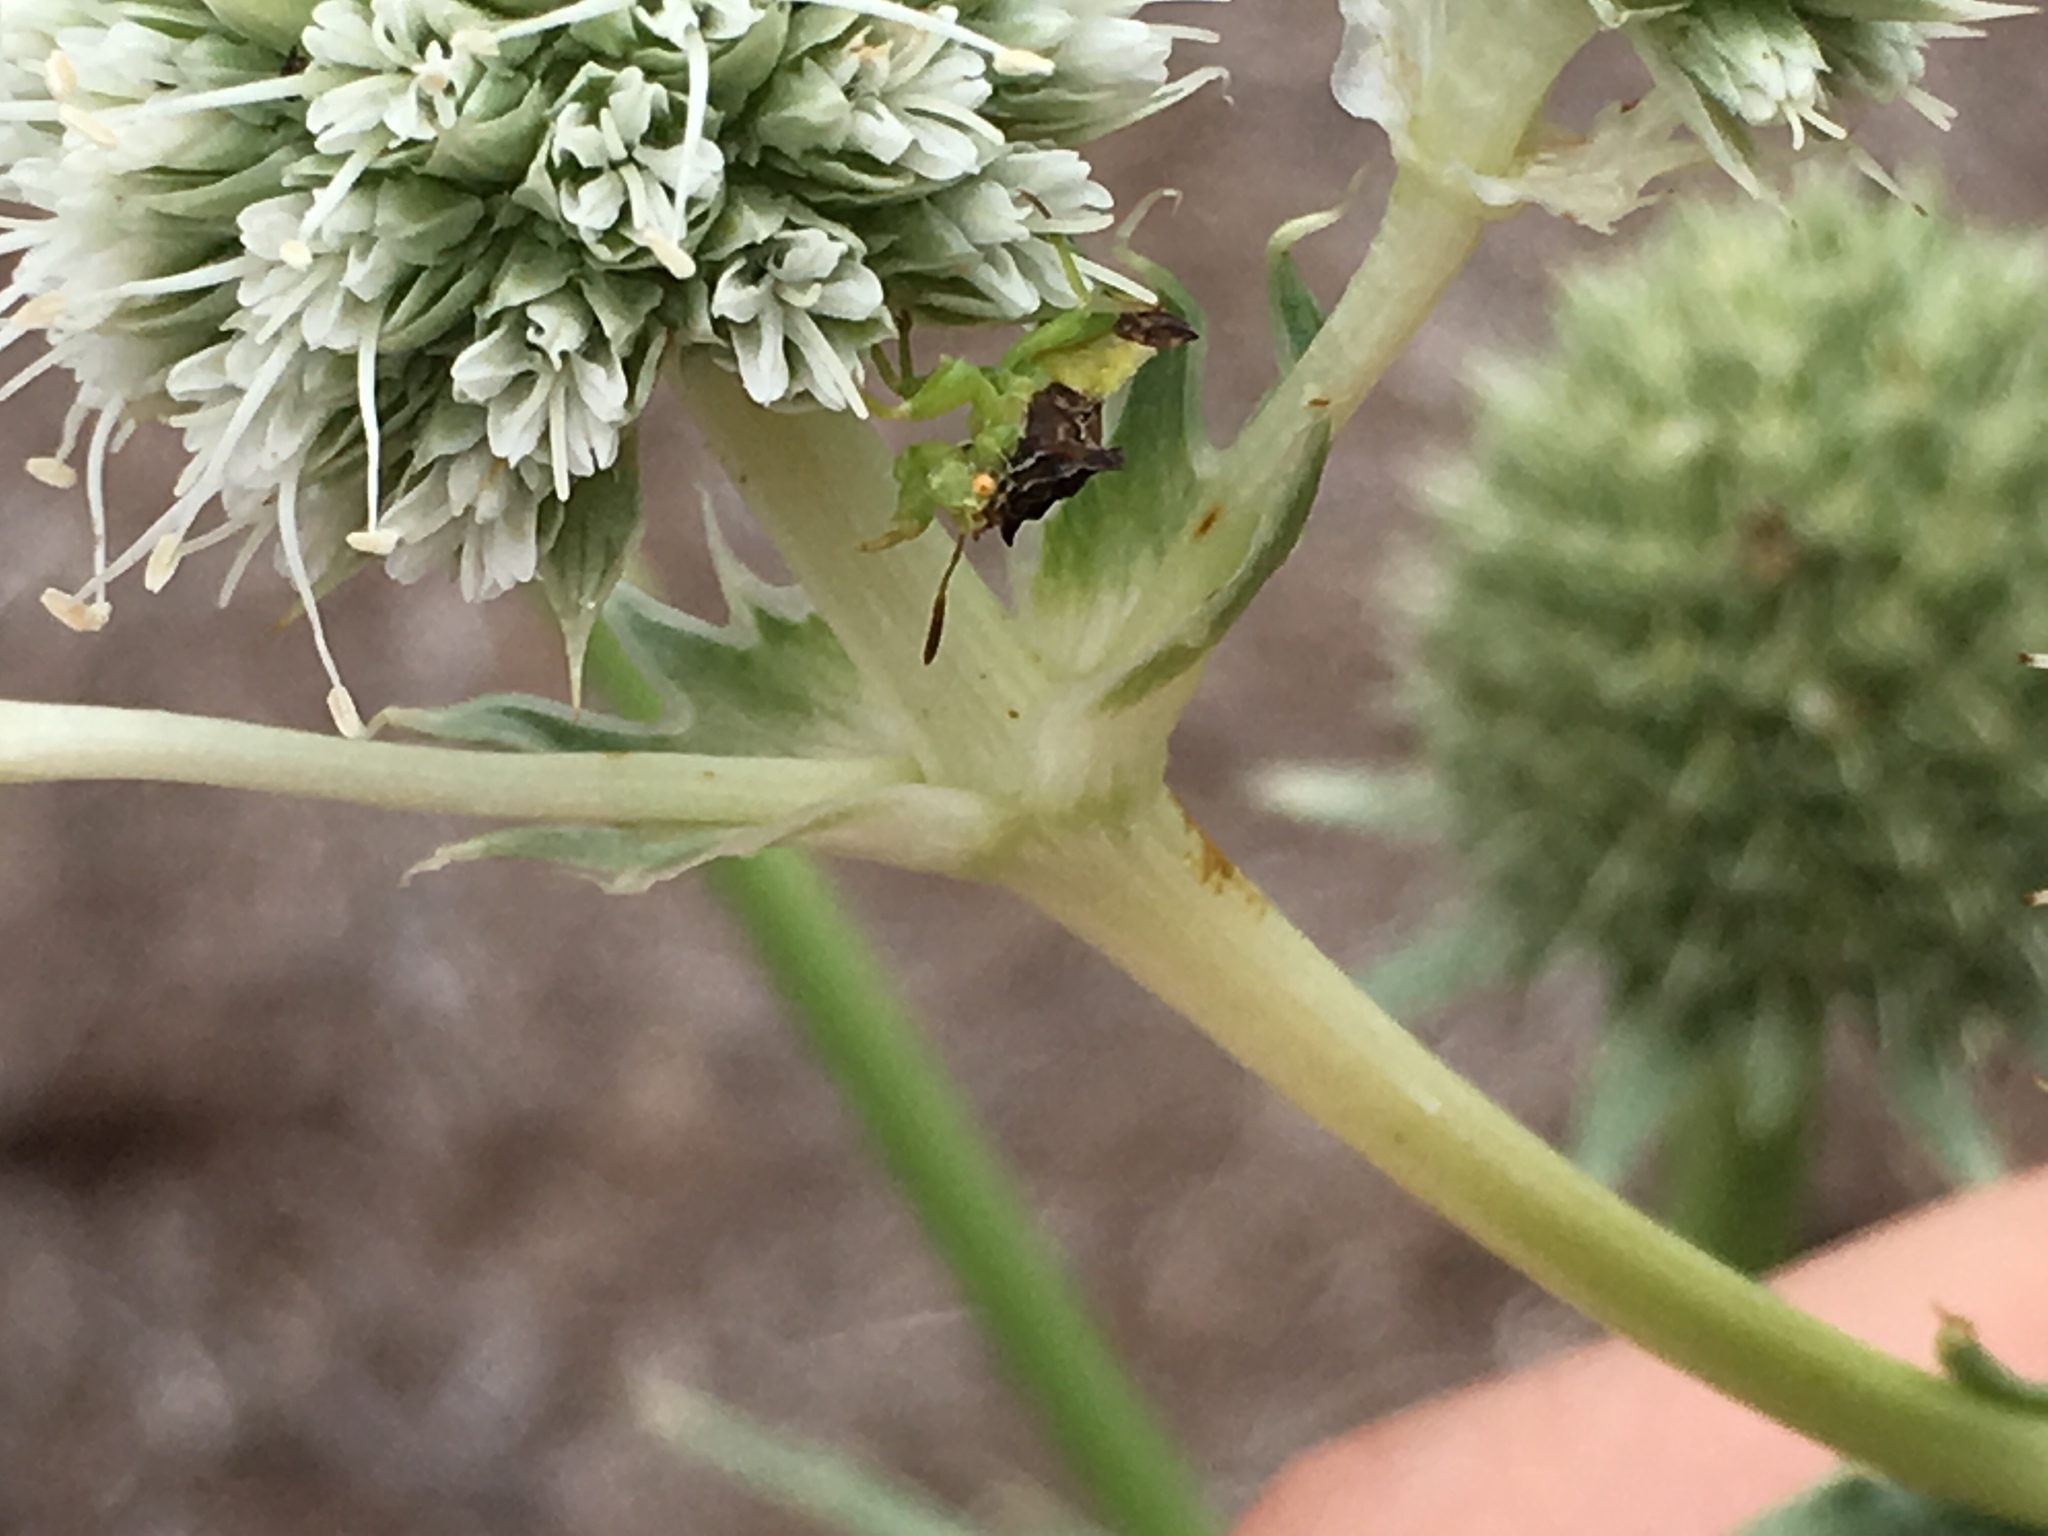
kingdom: Animalia
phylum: Arthropoda
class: Insecta
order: Hemiptera
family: Reduviidae
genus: Phymata
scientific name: Phymata pennsylvanica
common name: Pennsylvania ambush bug
